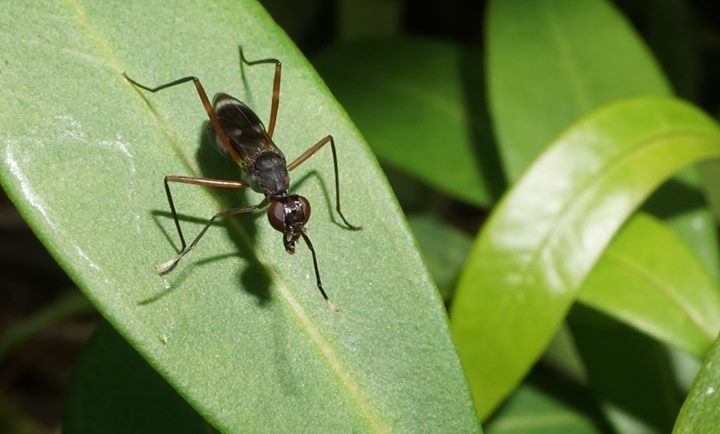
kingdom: Animalia
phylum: Arthropoda
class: Insecta
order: Diptera
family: Micropezidae
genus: Taeniaptera
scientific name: Taeniaptera trivittata
